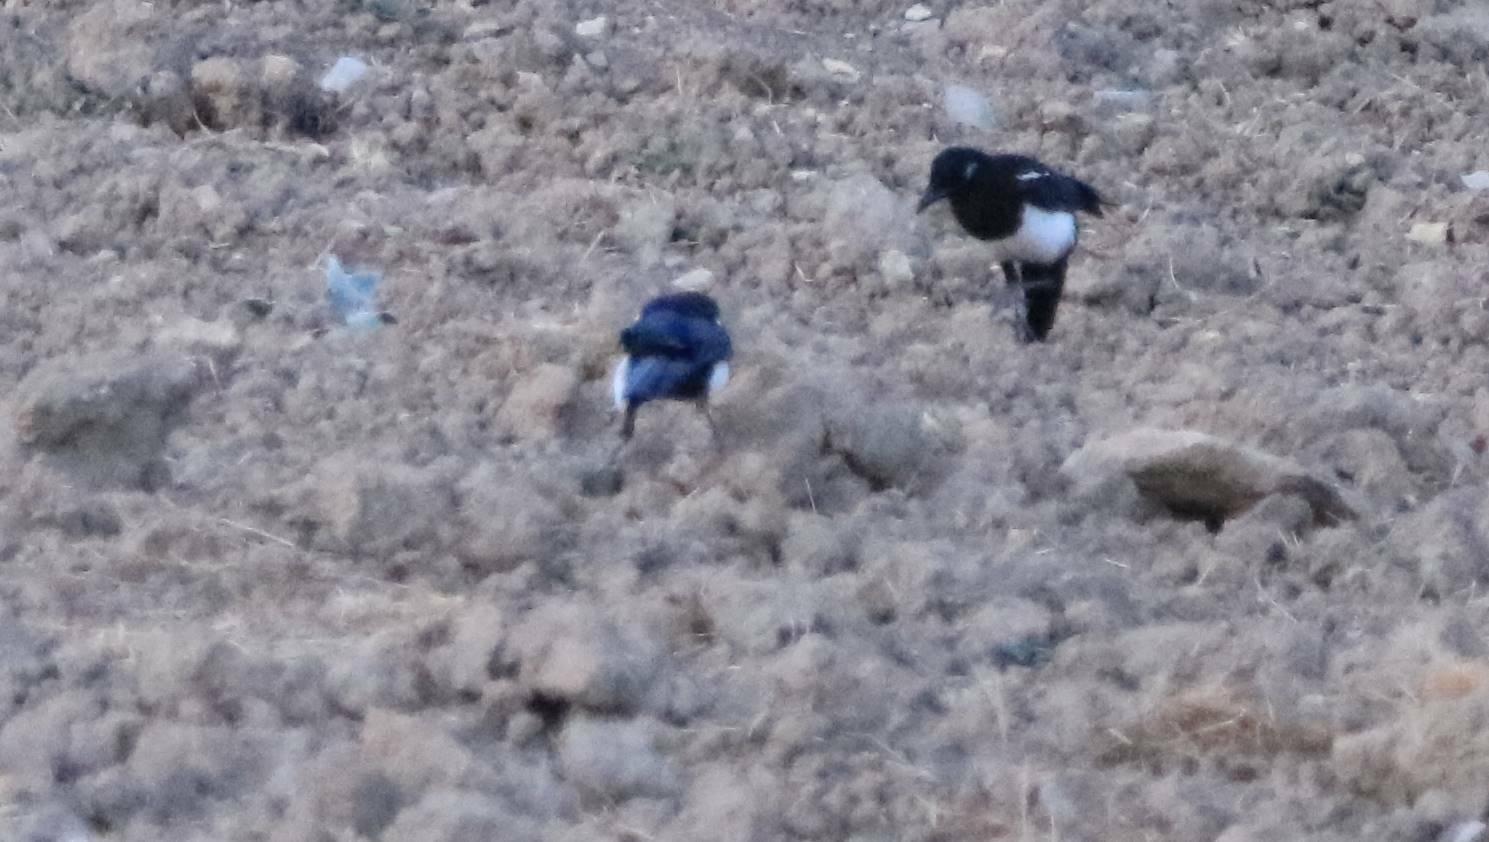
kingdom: Animalia
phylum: Chordata
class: Aves
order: Passeriformes
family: Corvidae
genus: Pica
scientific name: Pica mauritanica
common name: Maghreb magpie
